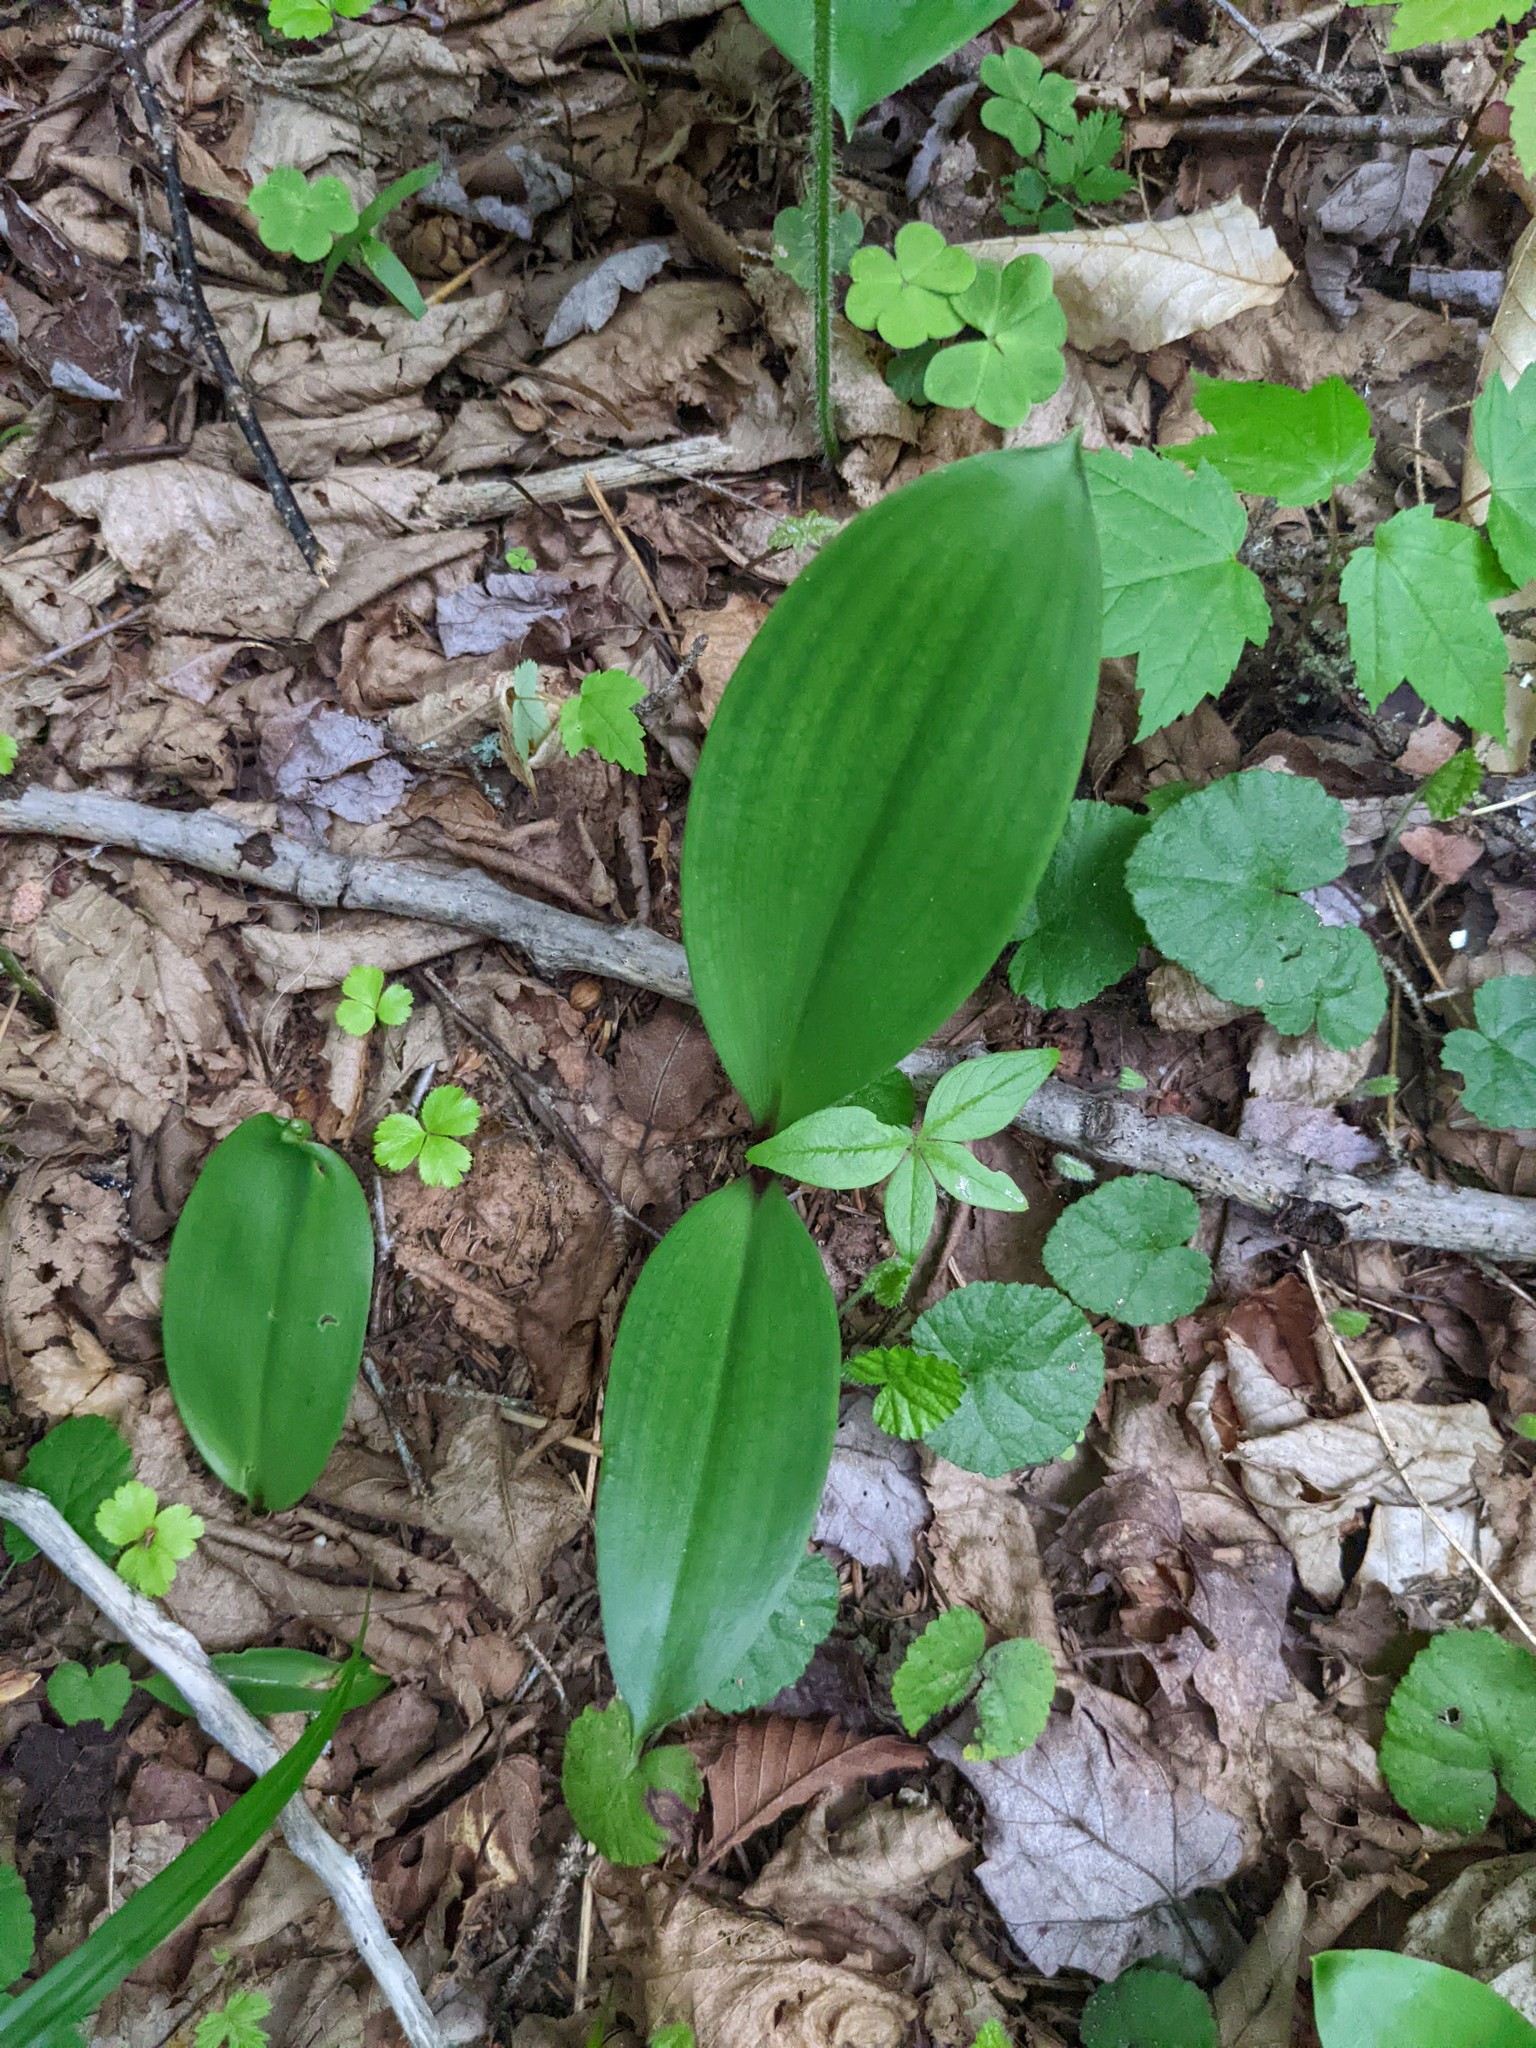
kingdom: Plantae
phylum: Tracheophyta
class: Liliopsida
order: Liliales
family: Liliaceae
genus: Clintonia
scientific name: Clintonia borealis
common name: Yellow clintonia
